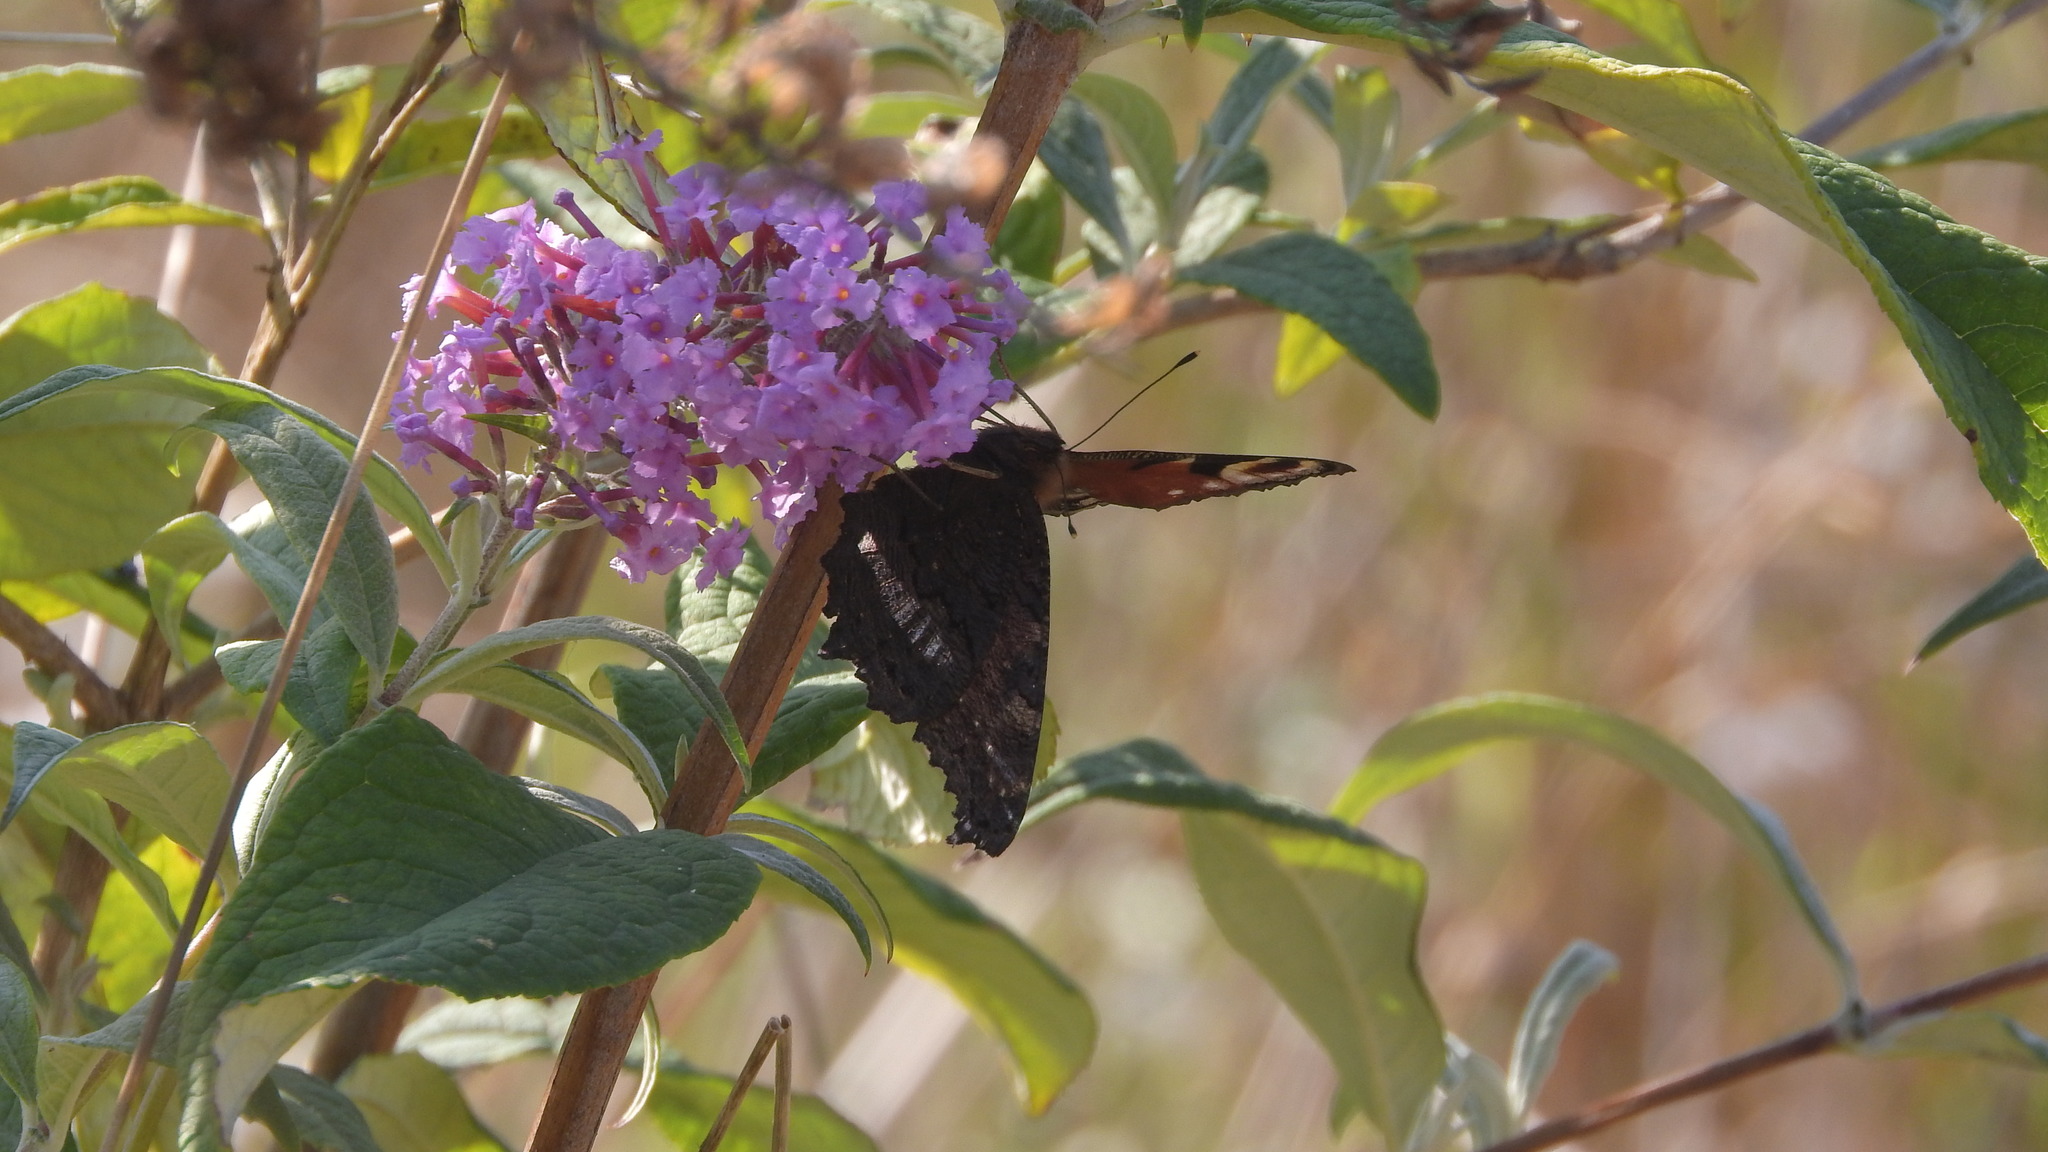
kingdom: Animalia
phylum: Arthropoda
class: Insecta
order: Lepidoptera
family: Nymphalidae
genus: Aglais
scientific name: Aglais io
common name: Peacock
